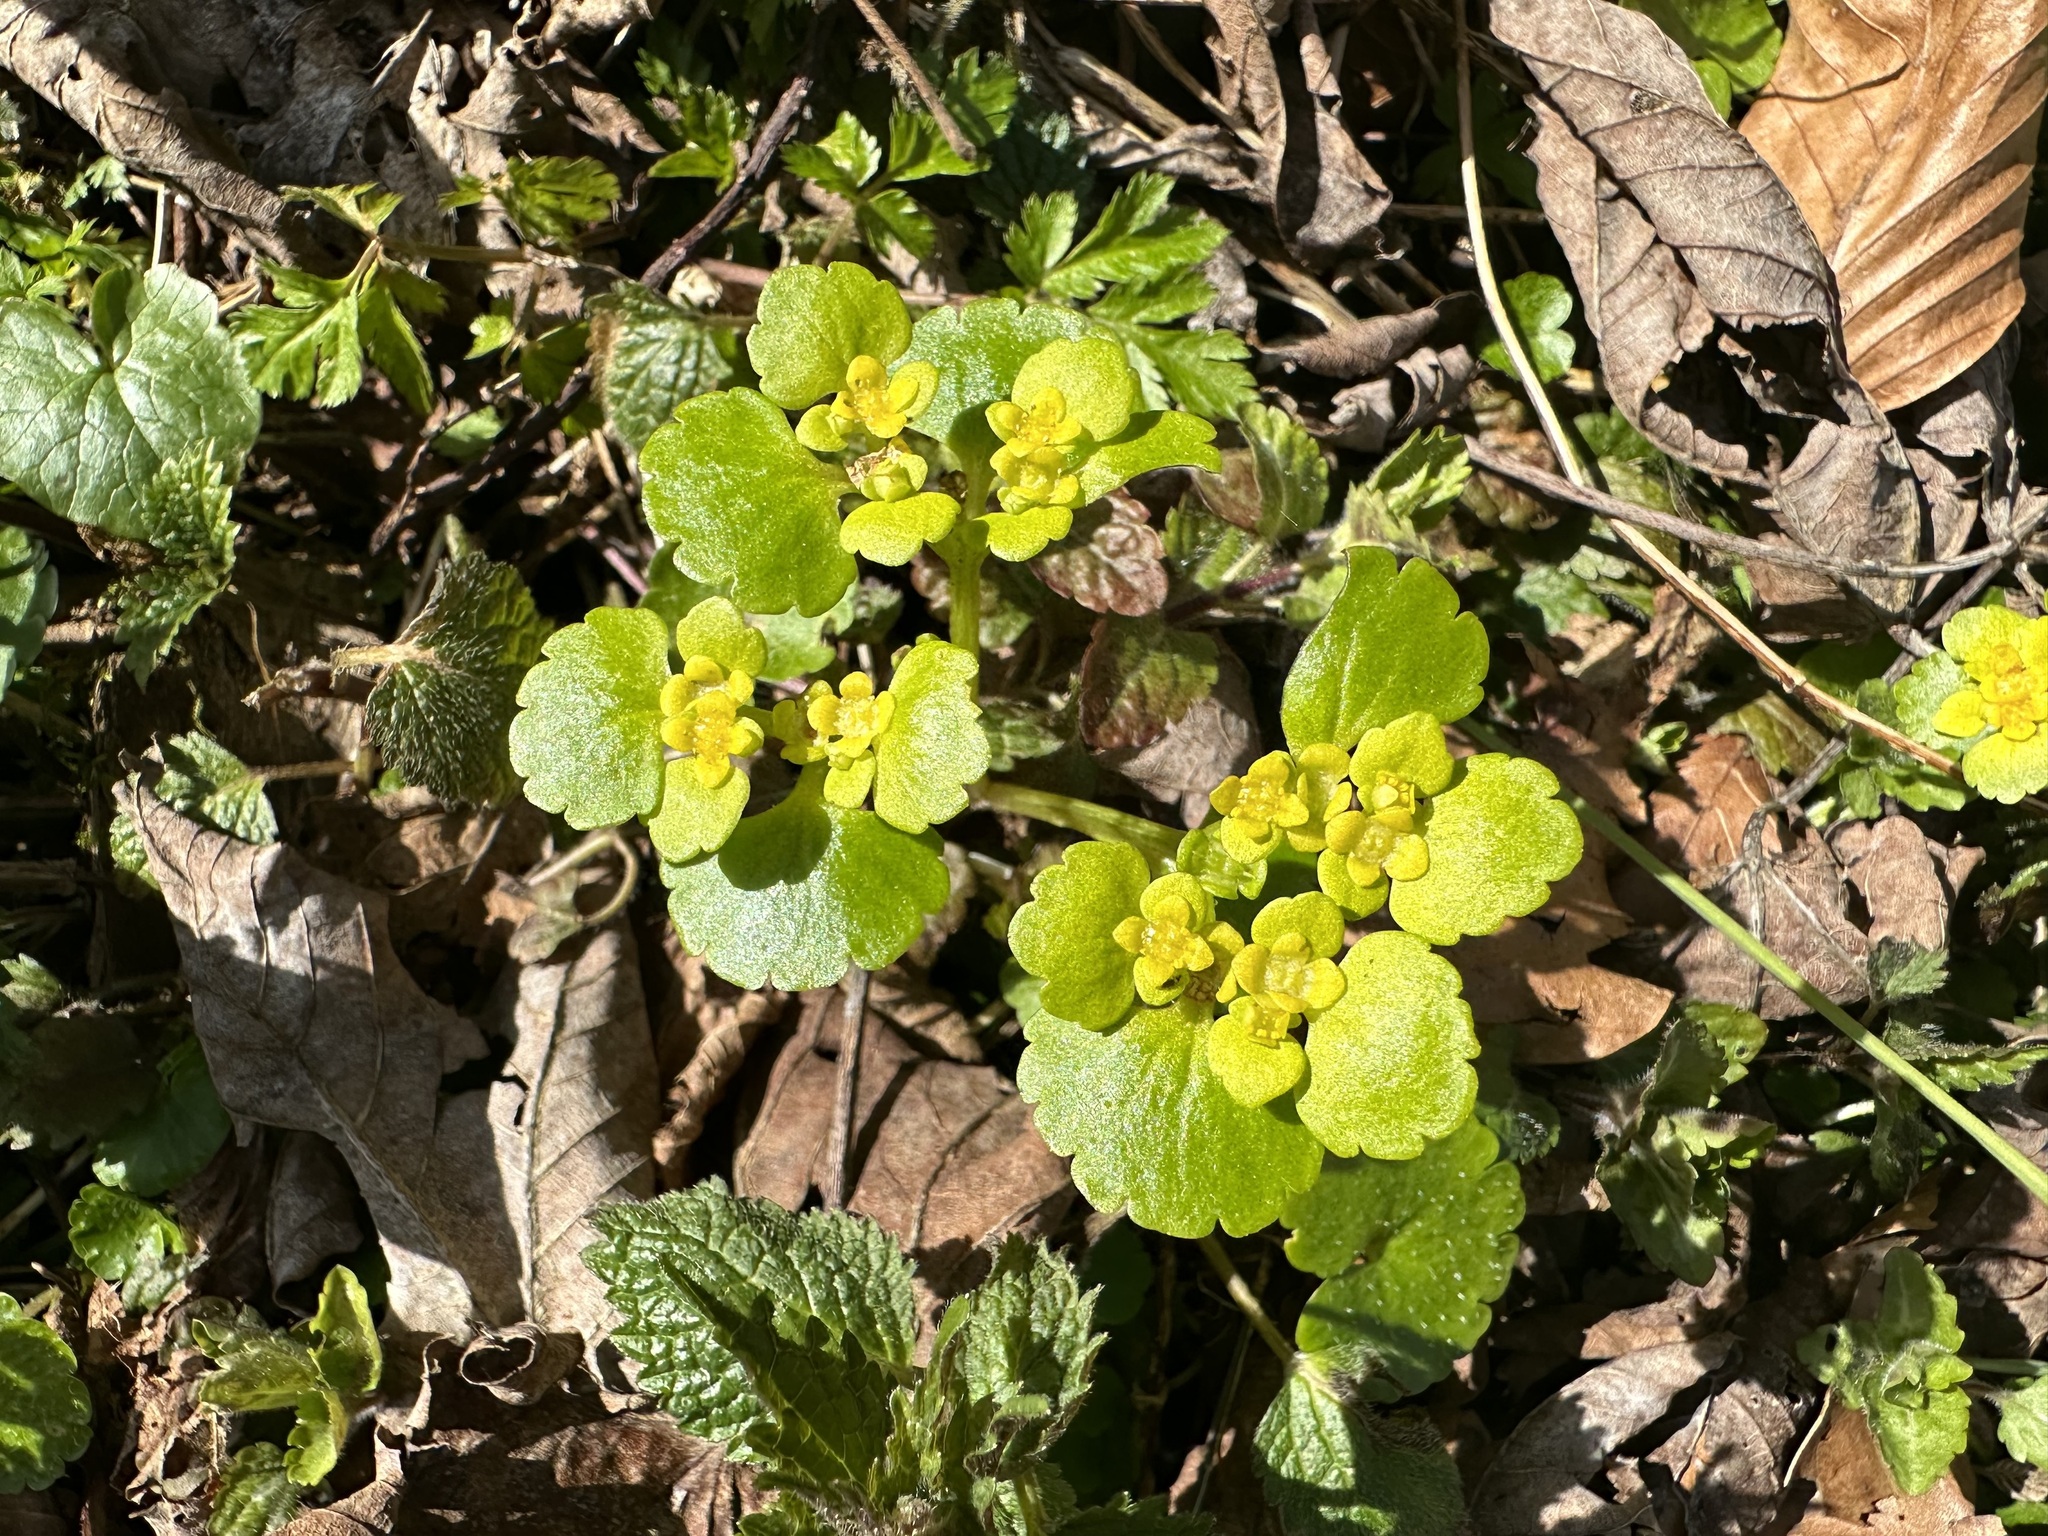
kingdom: Plantae
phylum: Tracheophyta
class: Magnoliopsida
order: Saxifragales
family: Saxifragaceae
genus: Chrysosplenium
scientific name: Chrysosplenium alternifolium
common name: Alternate-leaved golden-saxifrage
